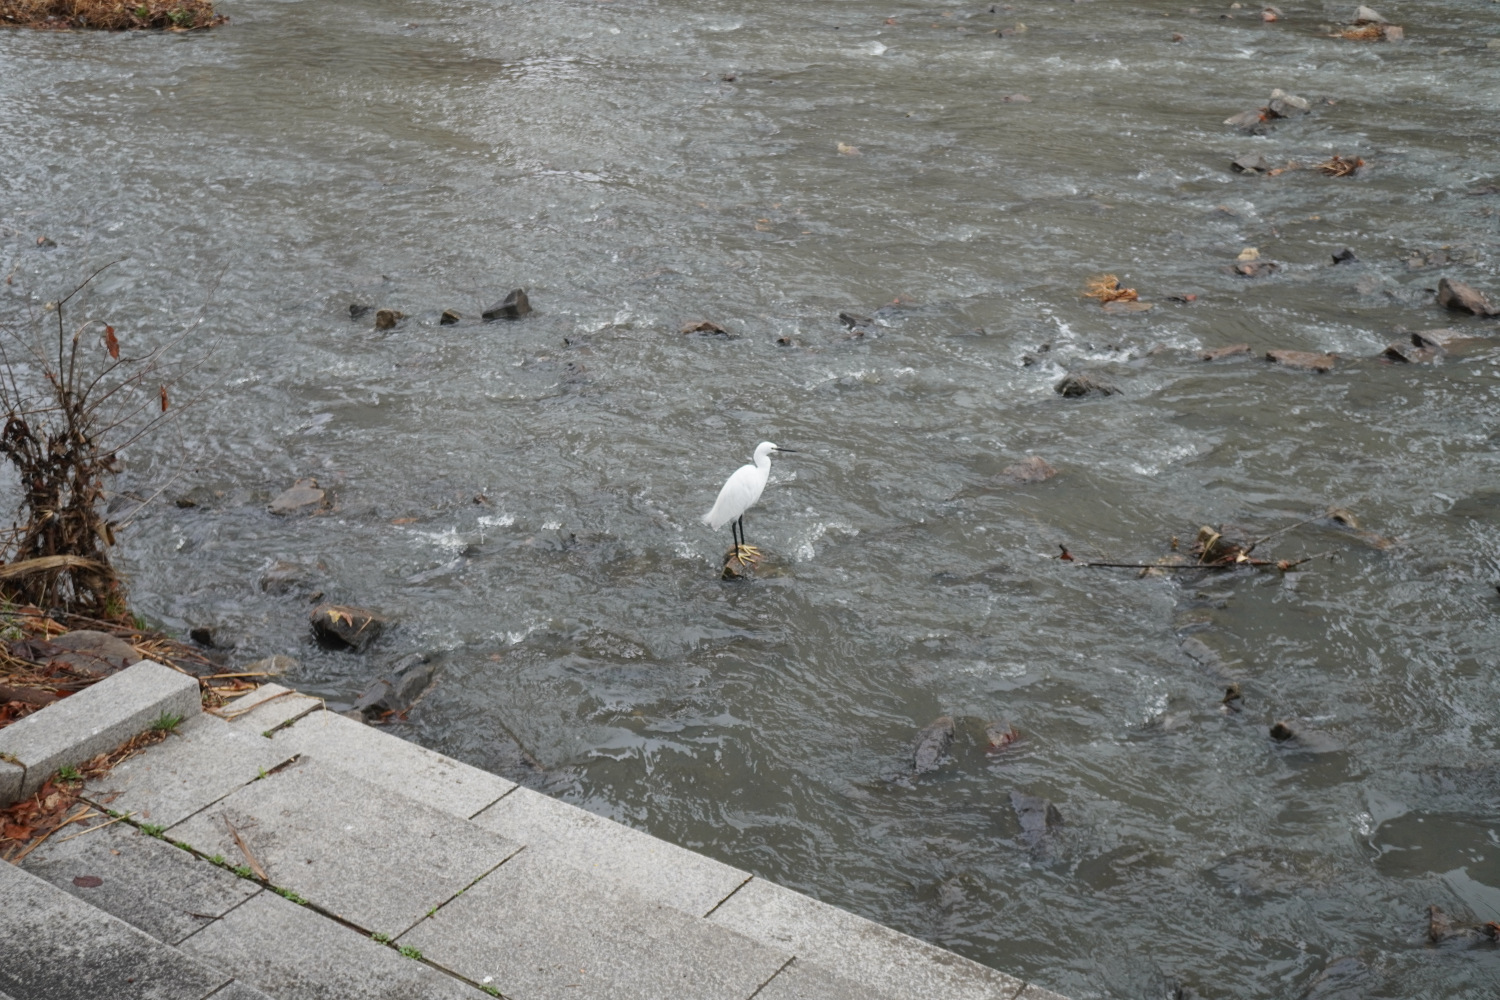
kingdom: Animalia
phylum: Chordata
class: Aves
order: Pelecaniformes
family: Ardeidae
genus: Egretta
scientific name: Egretta garzetta
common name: Little egret
